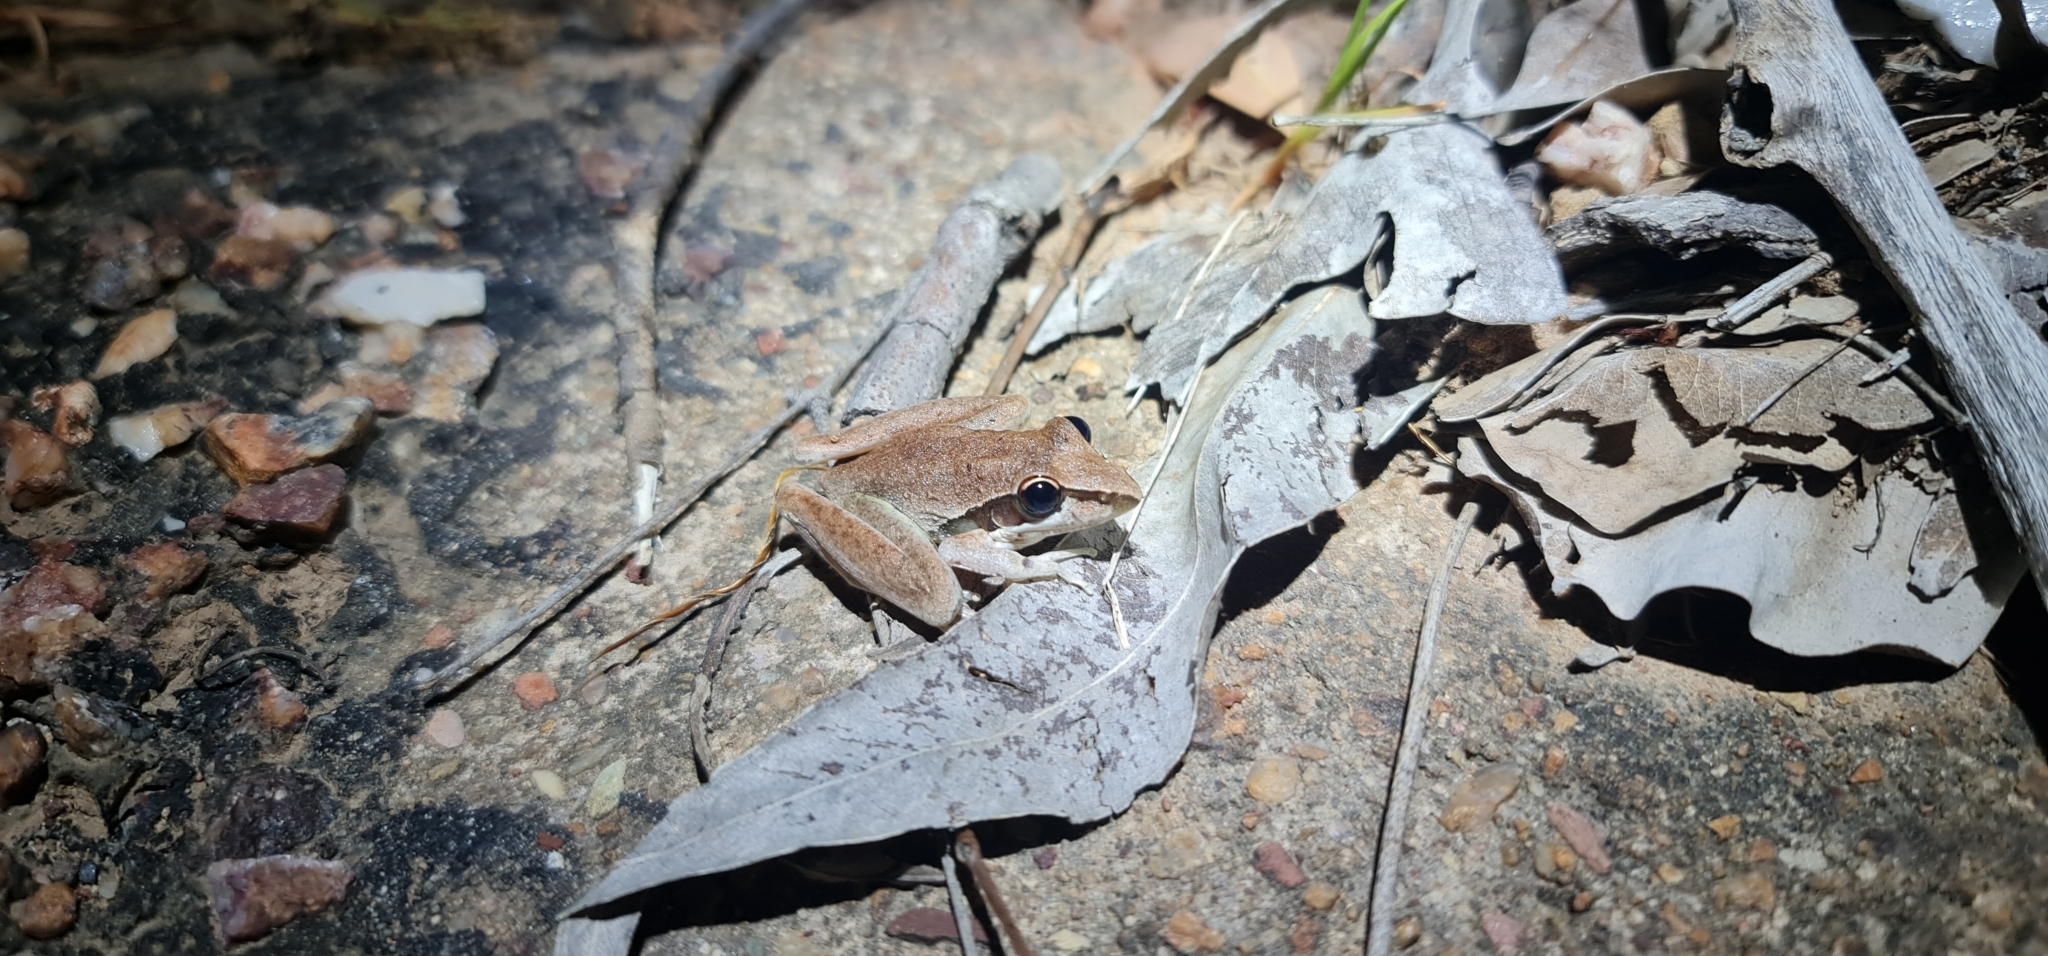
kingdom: Animalia
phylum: Chordata
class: Amphibia
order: Anura
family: Pelodryadidae
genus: Litoria
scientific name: Litoria watjulumensis
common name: Wotjulum frog
